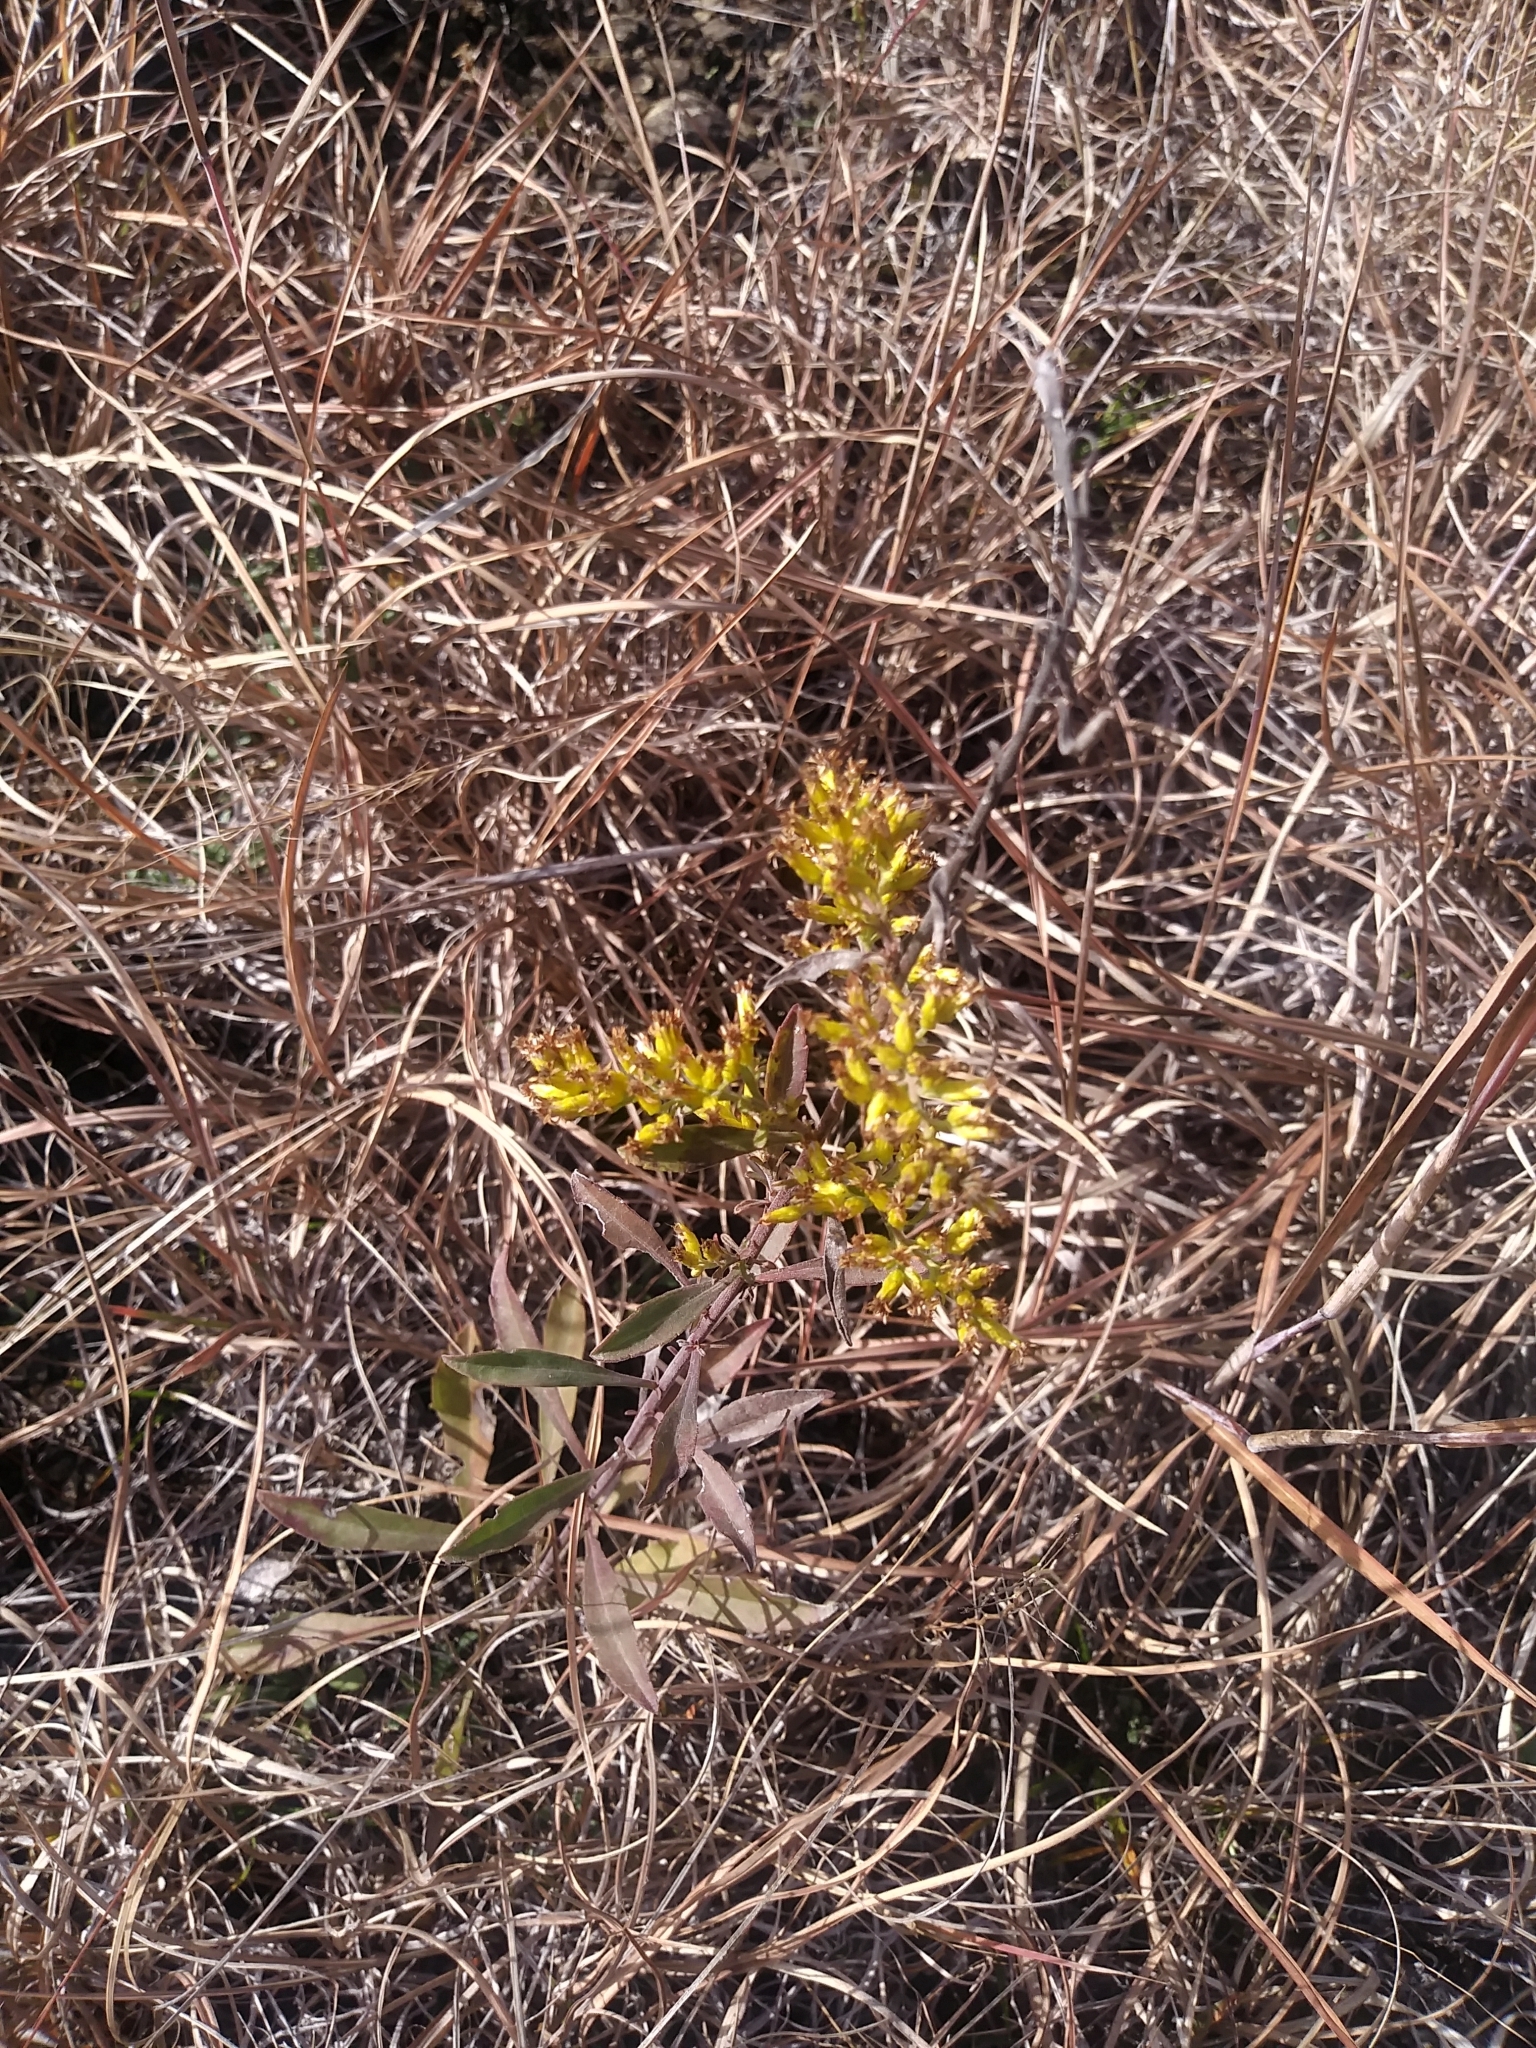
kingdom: Plantae
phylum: Tracheophyta
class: Magnoliopsida
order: Asterales
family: Asteraceae
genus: Solidago
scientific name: Solidago nemoralis
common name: Grey goldenrod
